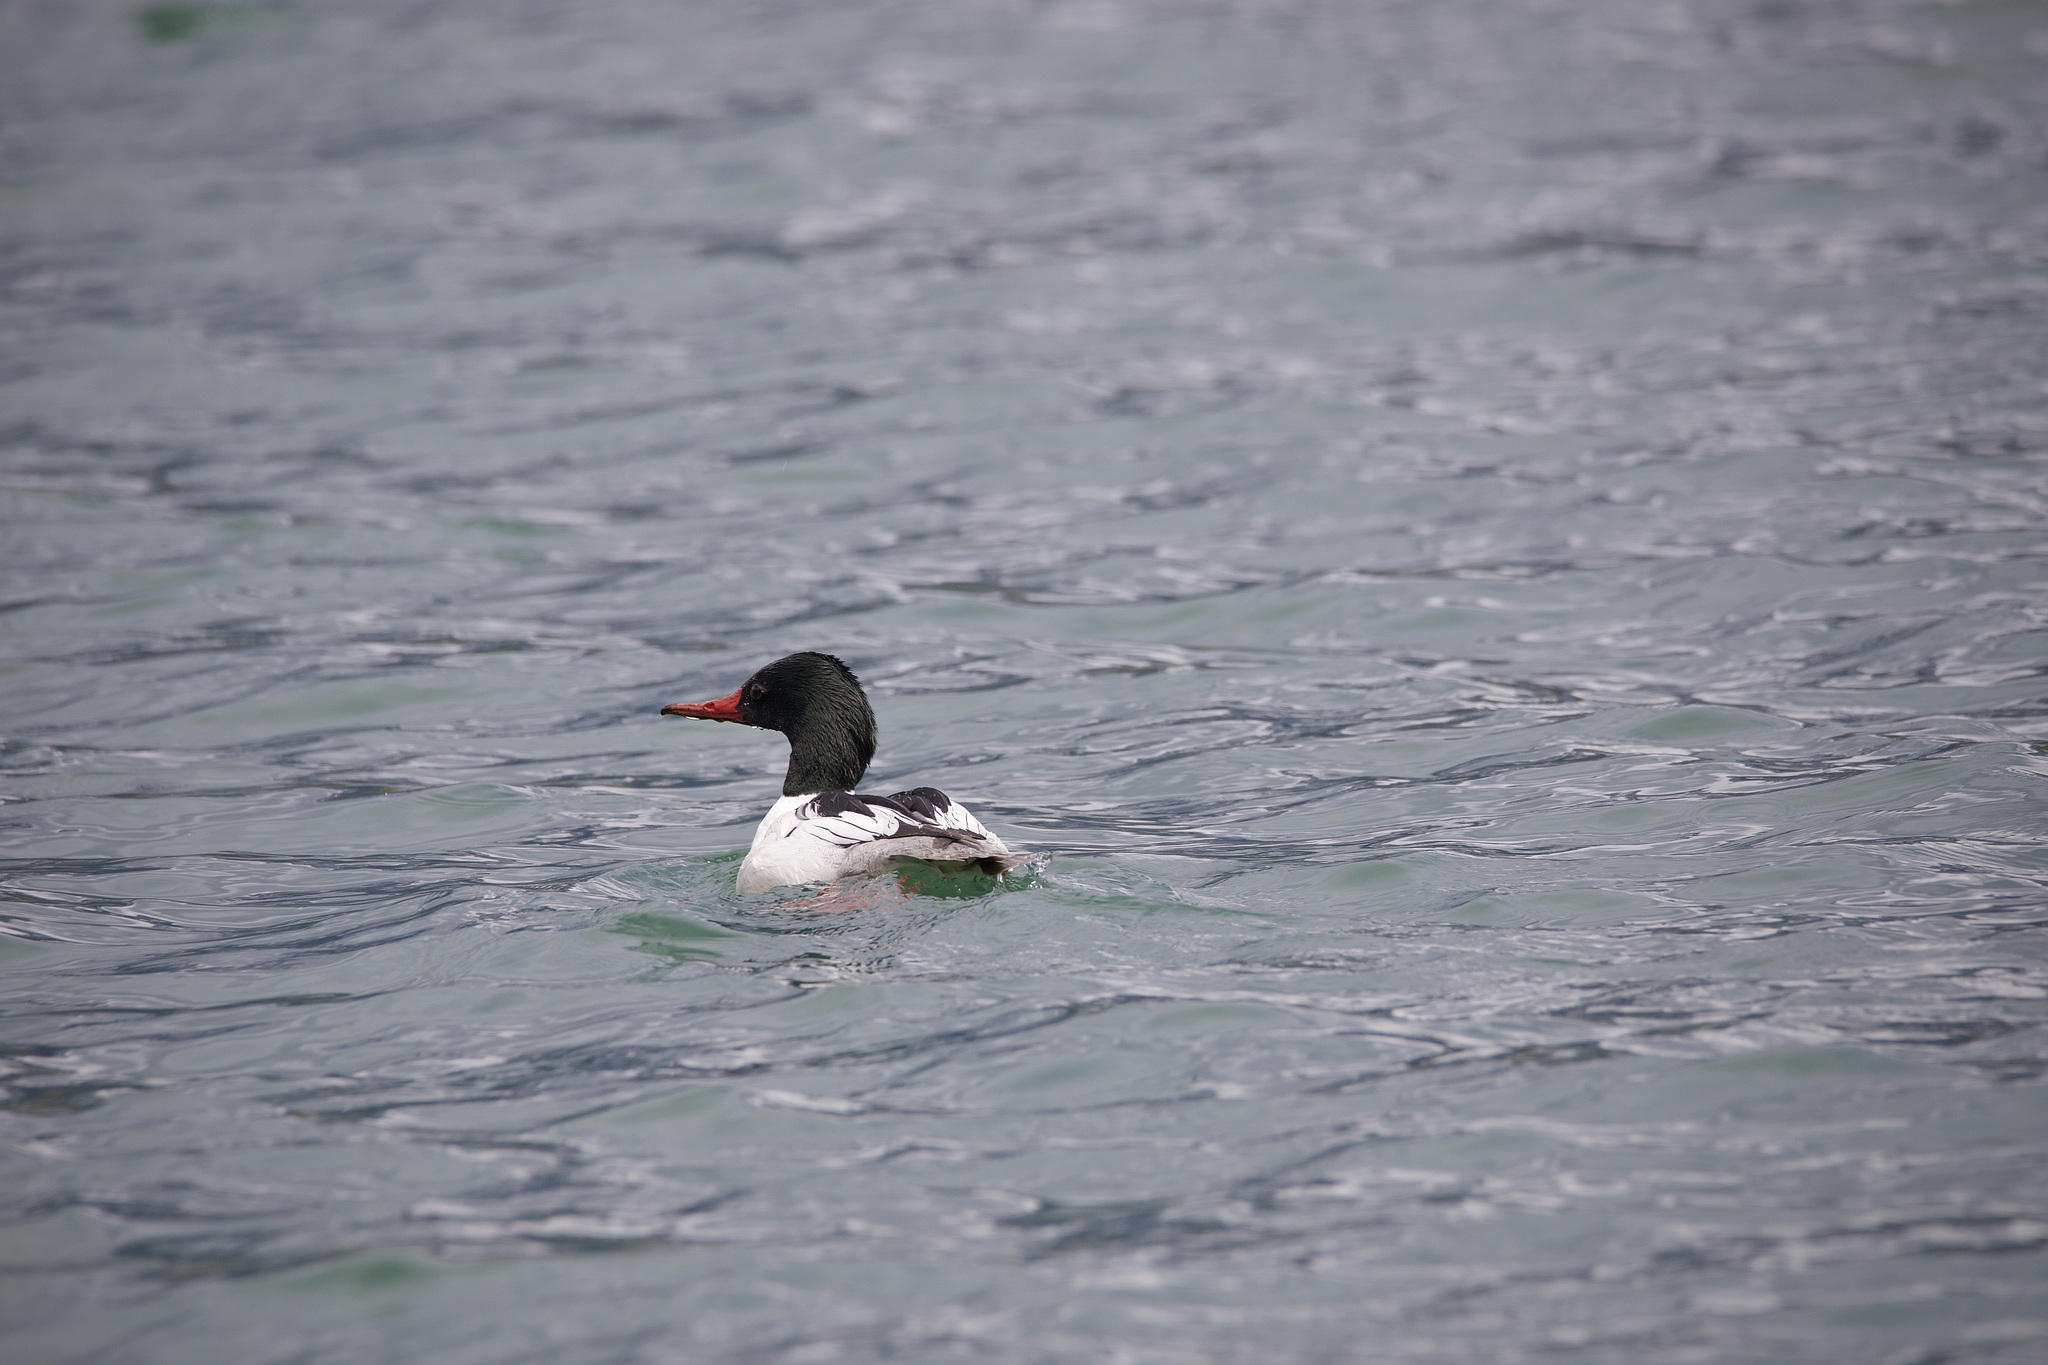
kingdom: Animalia
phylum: Chordata
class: Aves
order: Anseriformes
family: Anatidae
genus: Mergus
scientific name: Mergus merganser
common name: Common merganser
